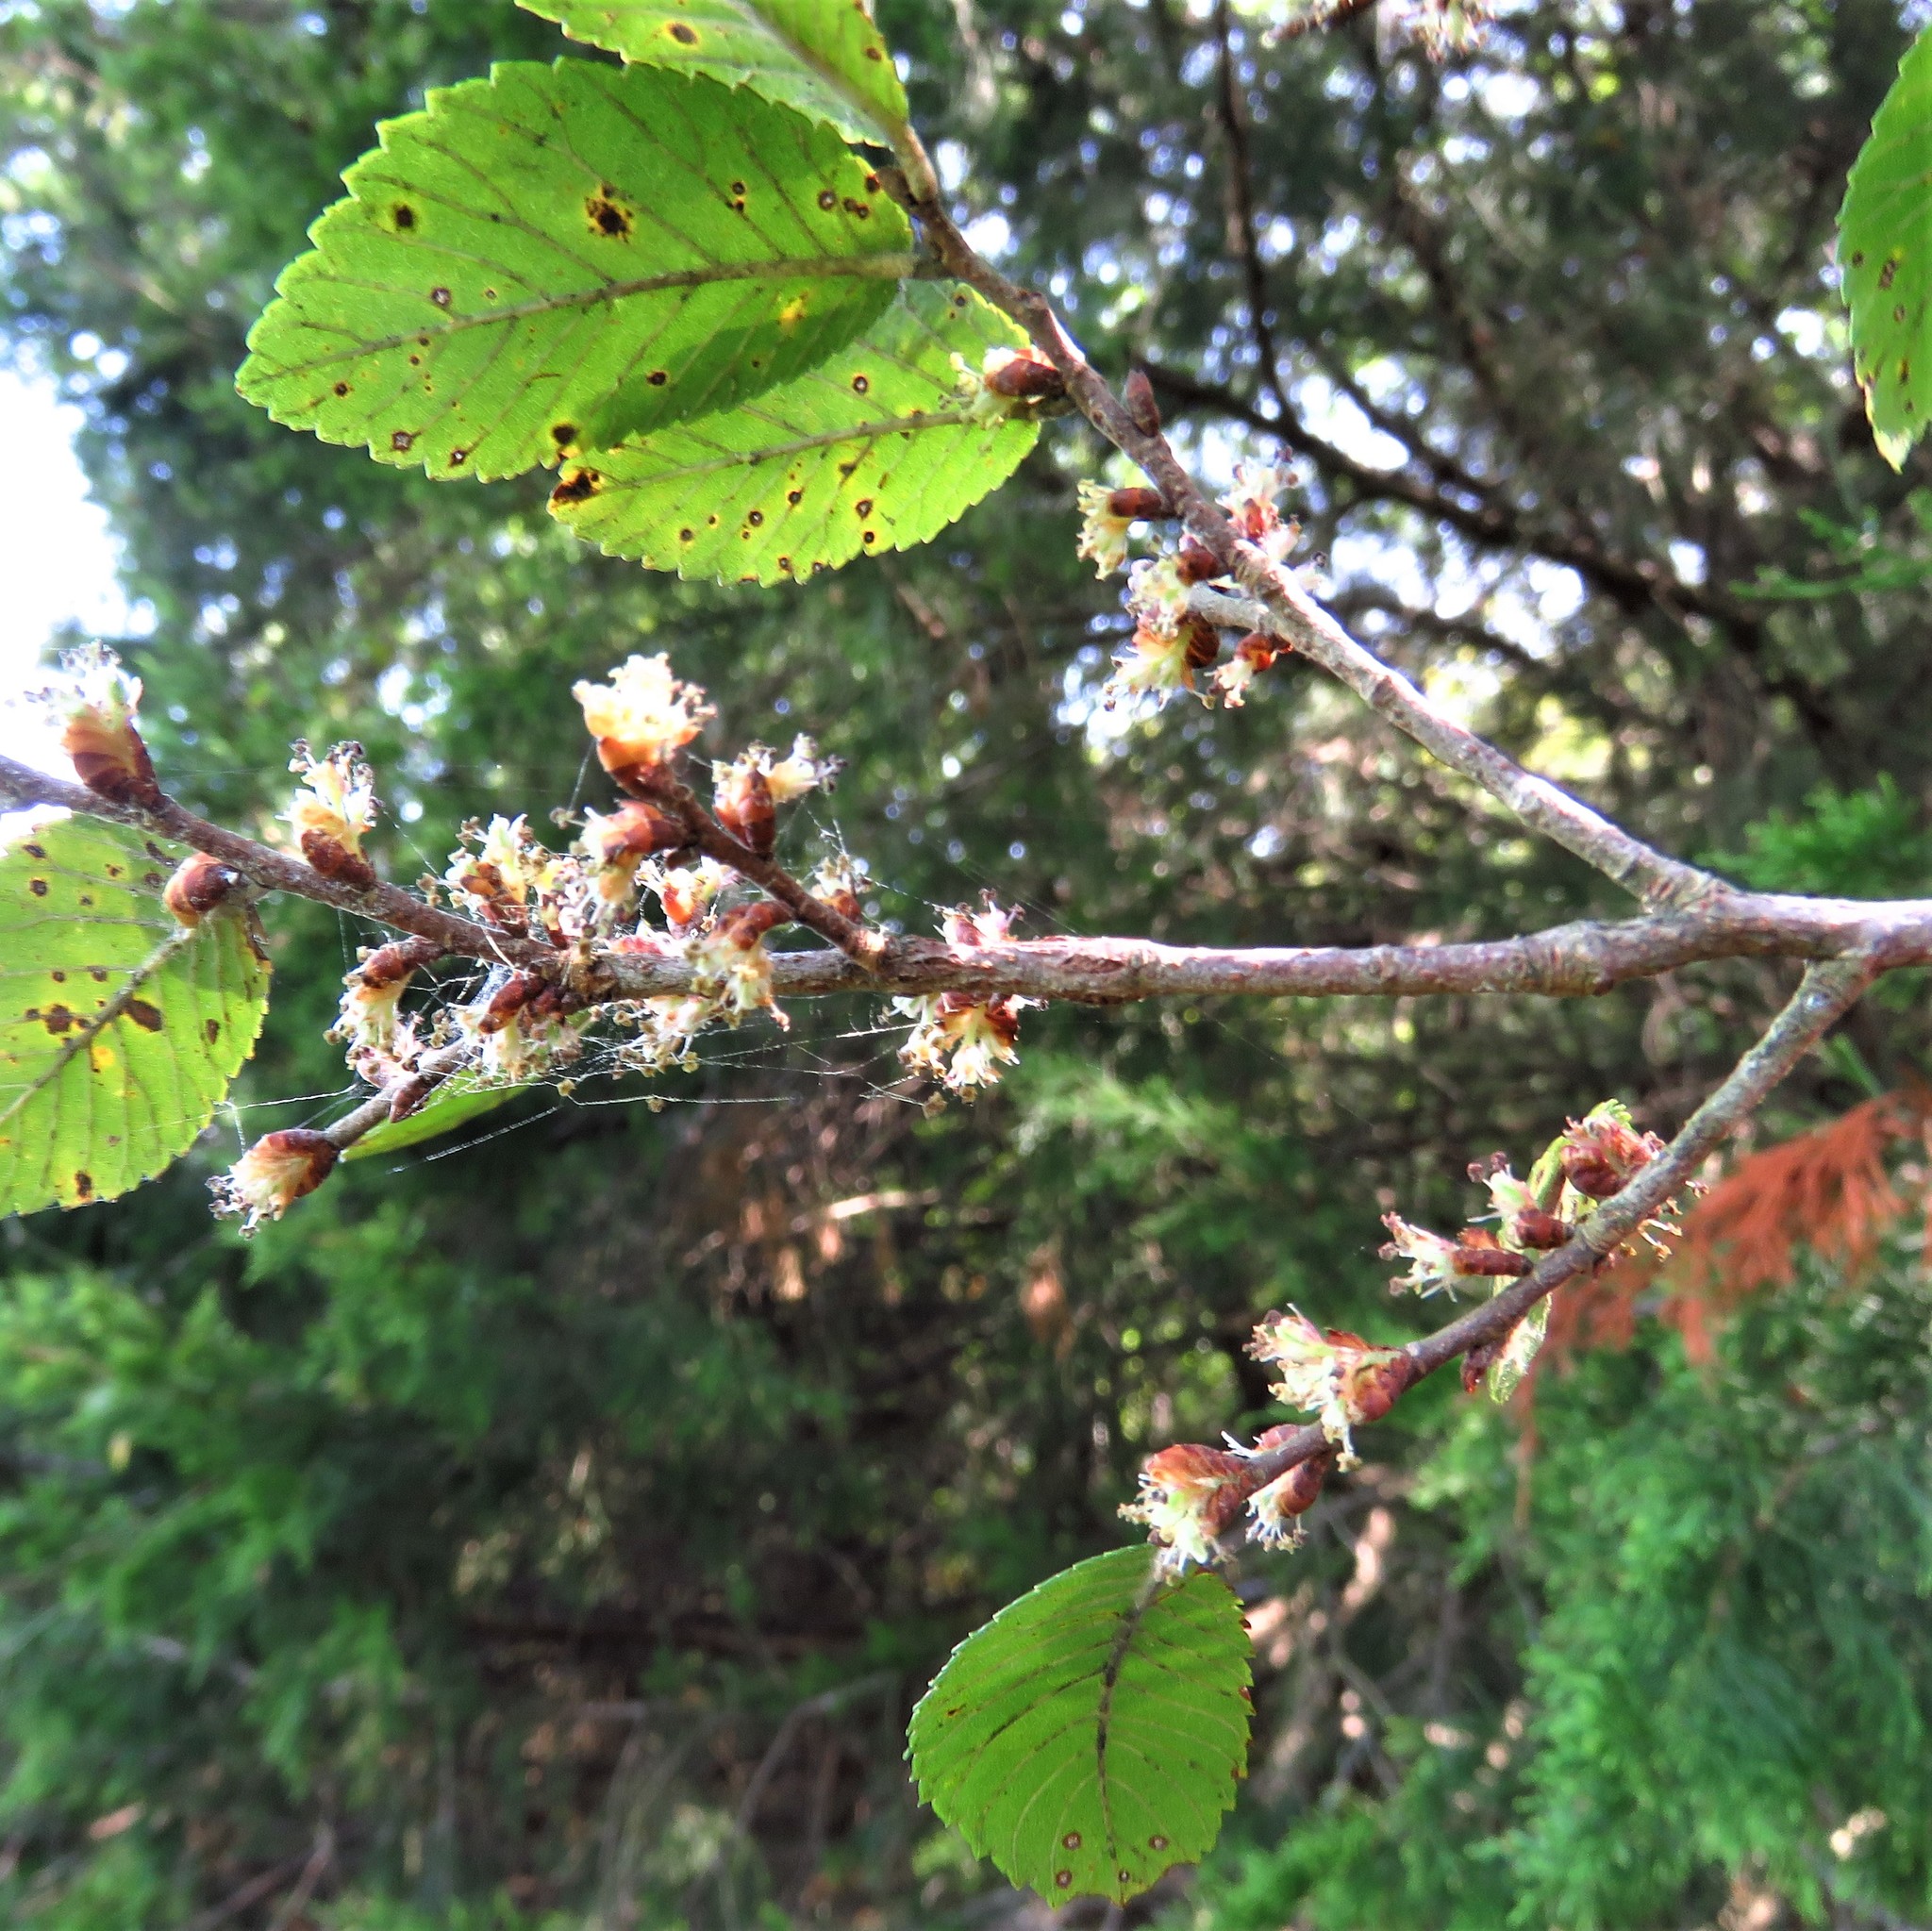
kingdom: Plantae
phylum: Tracheophyta
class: Magnoliopsida
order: Rosales
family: Ulmaceae
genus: Ulmus
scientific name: Ulmus crassifolia
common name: Basket elm
